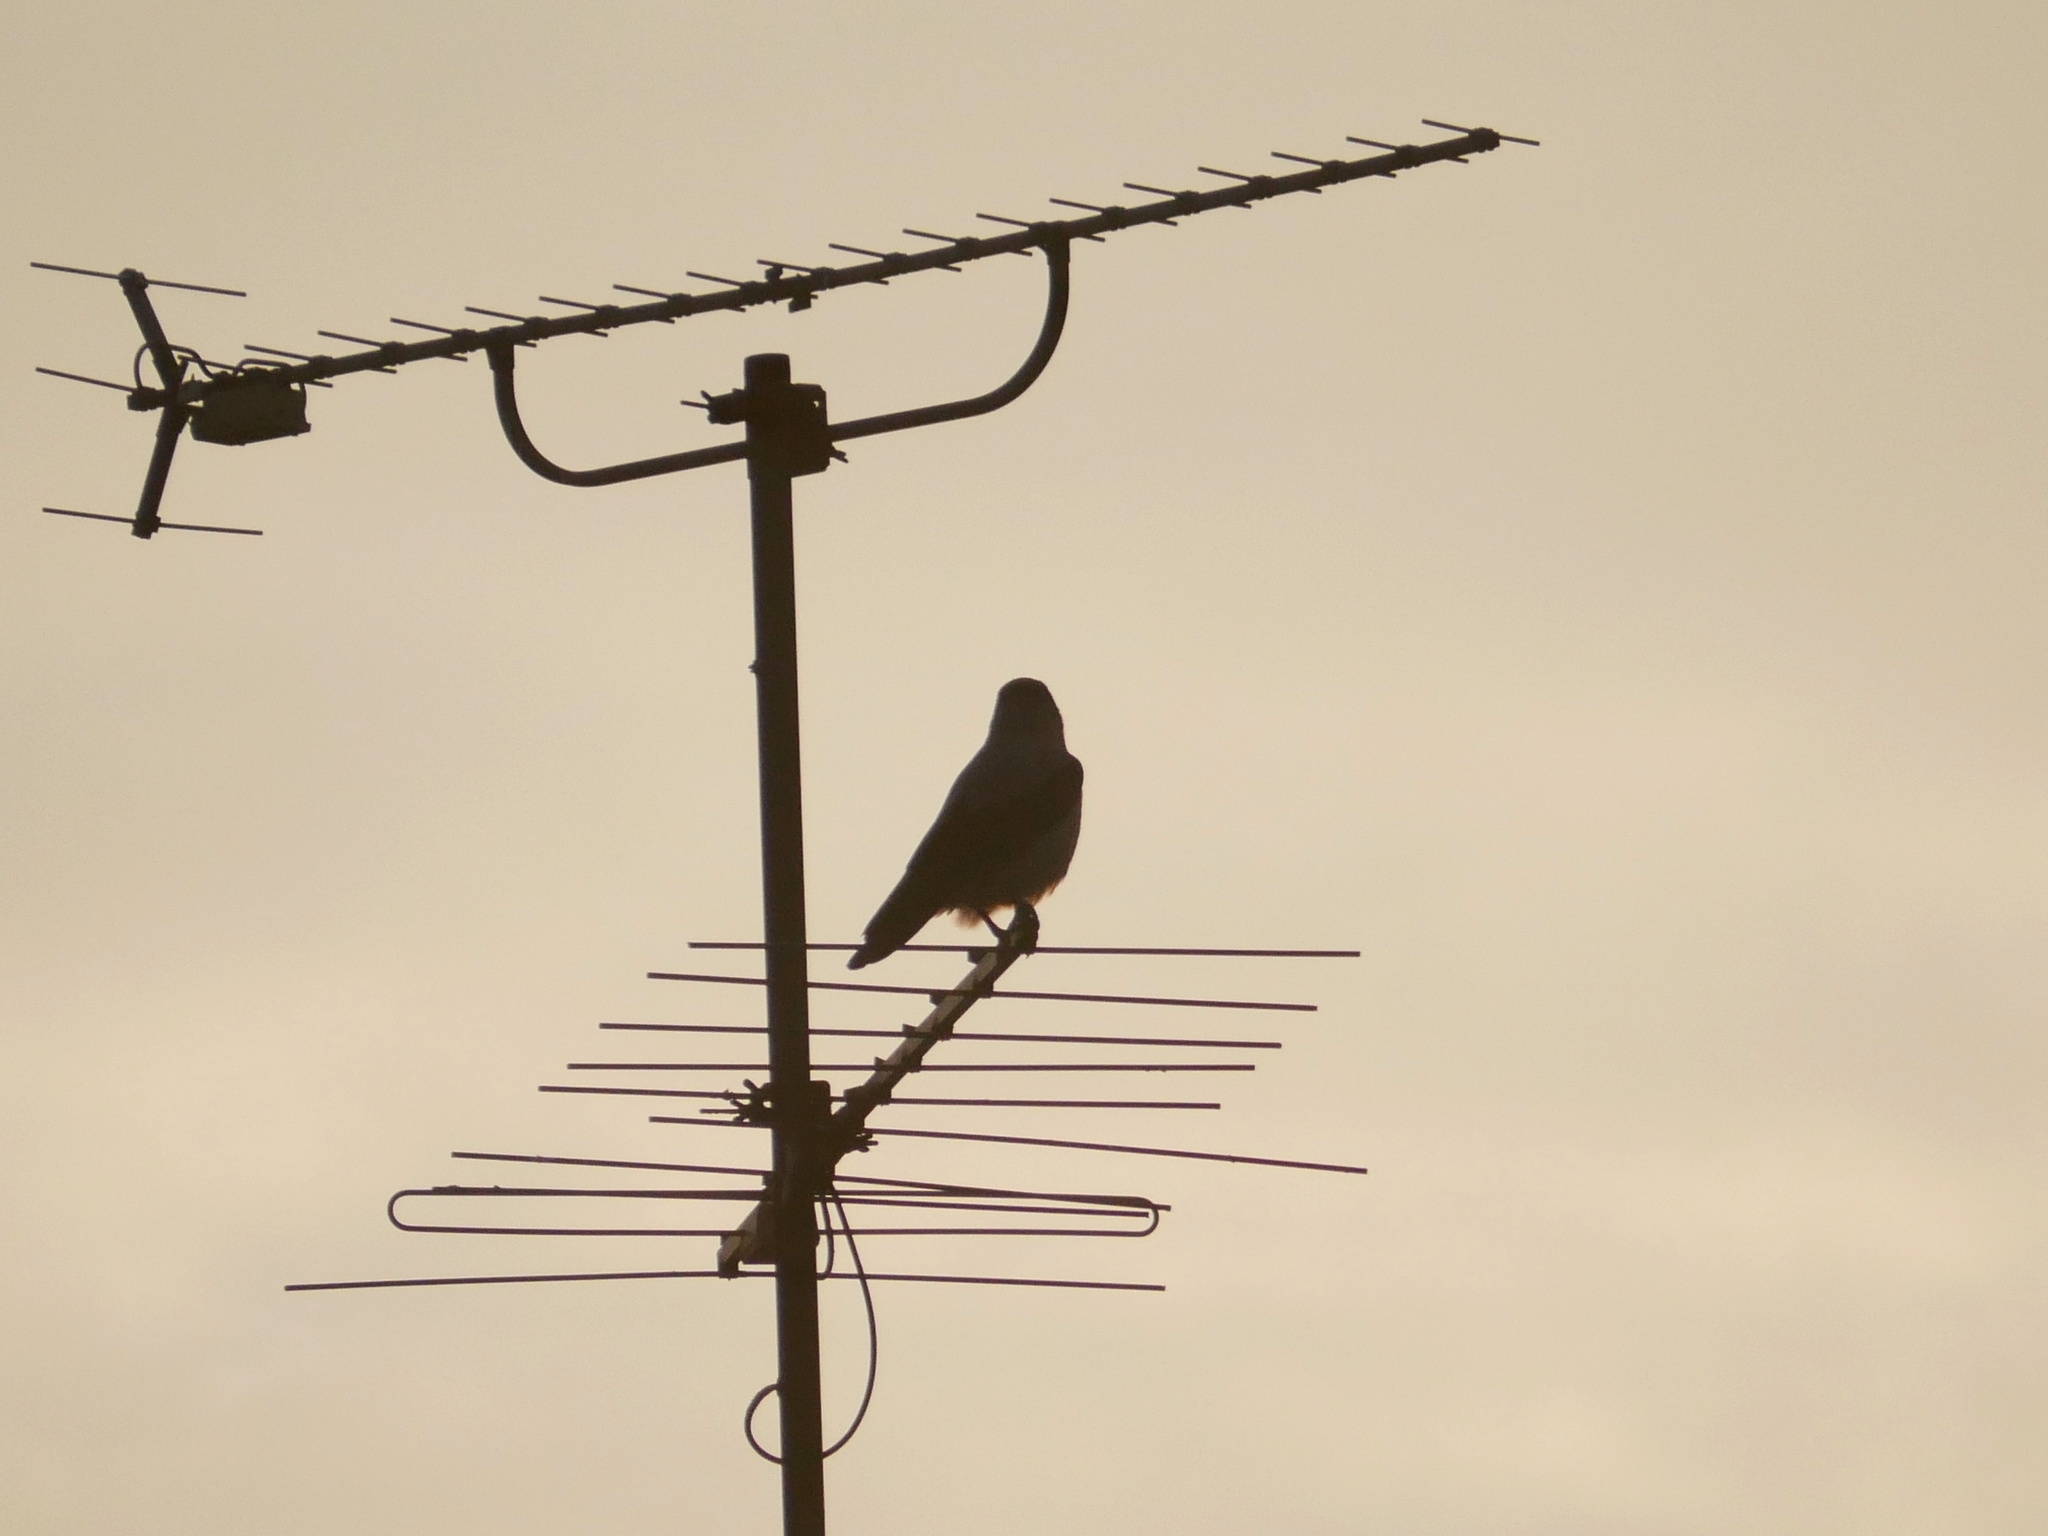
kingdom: Animalia
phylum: Chordata
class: Aves
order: Passeriformes
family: Corvidae
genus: Corvus
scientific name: Corvus cornix
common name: Hooded crow
